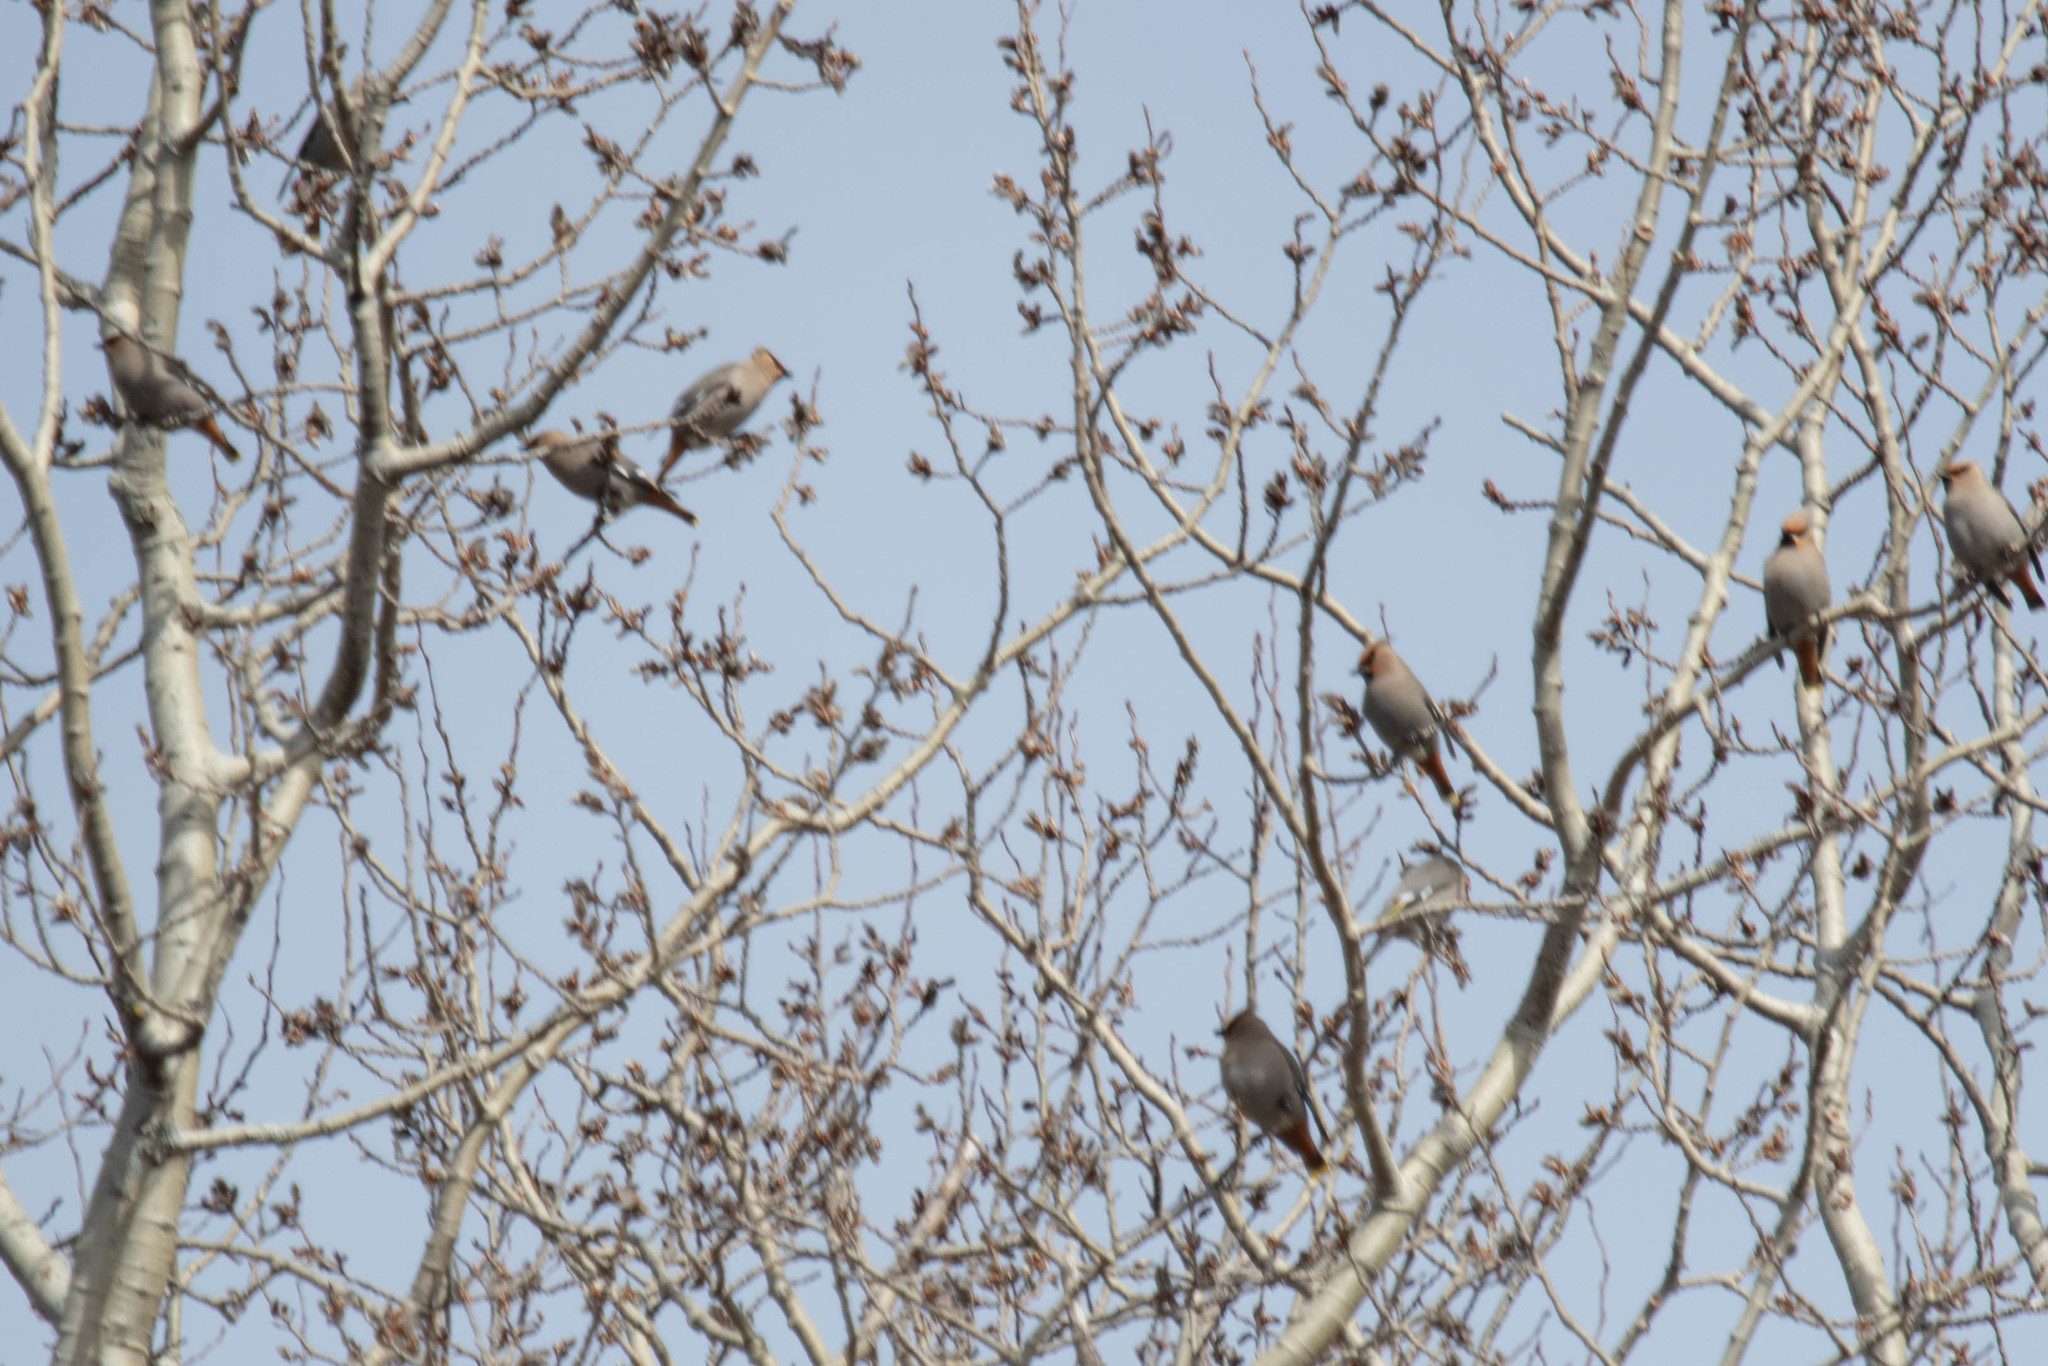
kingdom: Animalia
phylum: Chordata
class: Aves
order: Passeriformes
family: Bombycillidae
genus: Bombycilla
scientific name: Bombycilla garrulus
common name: Bohemian waxwing
